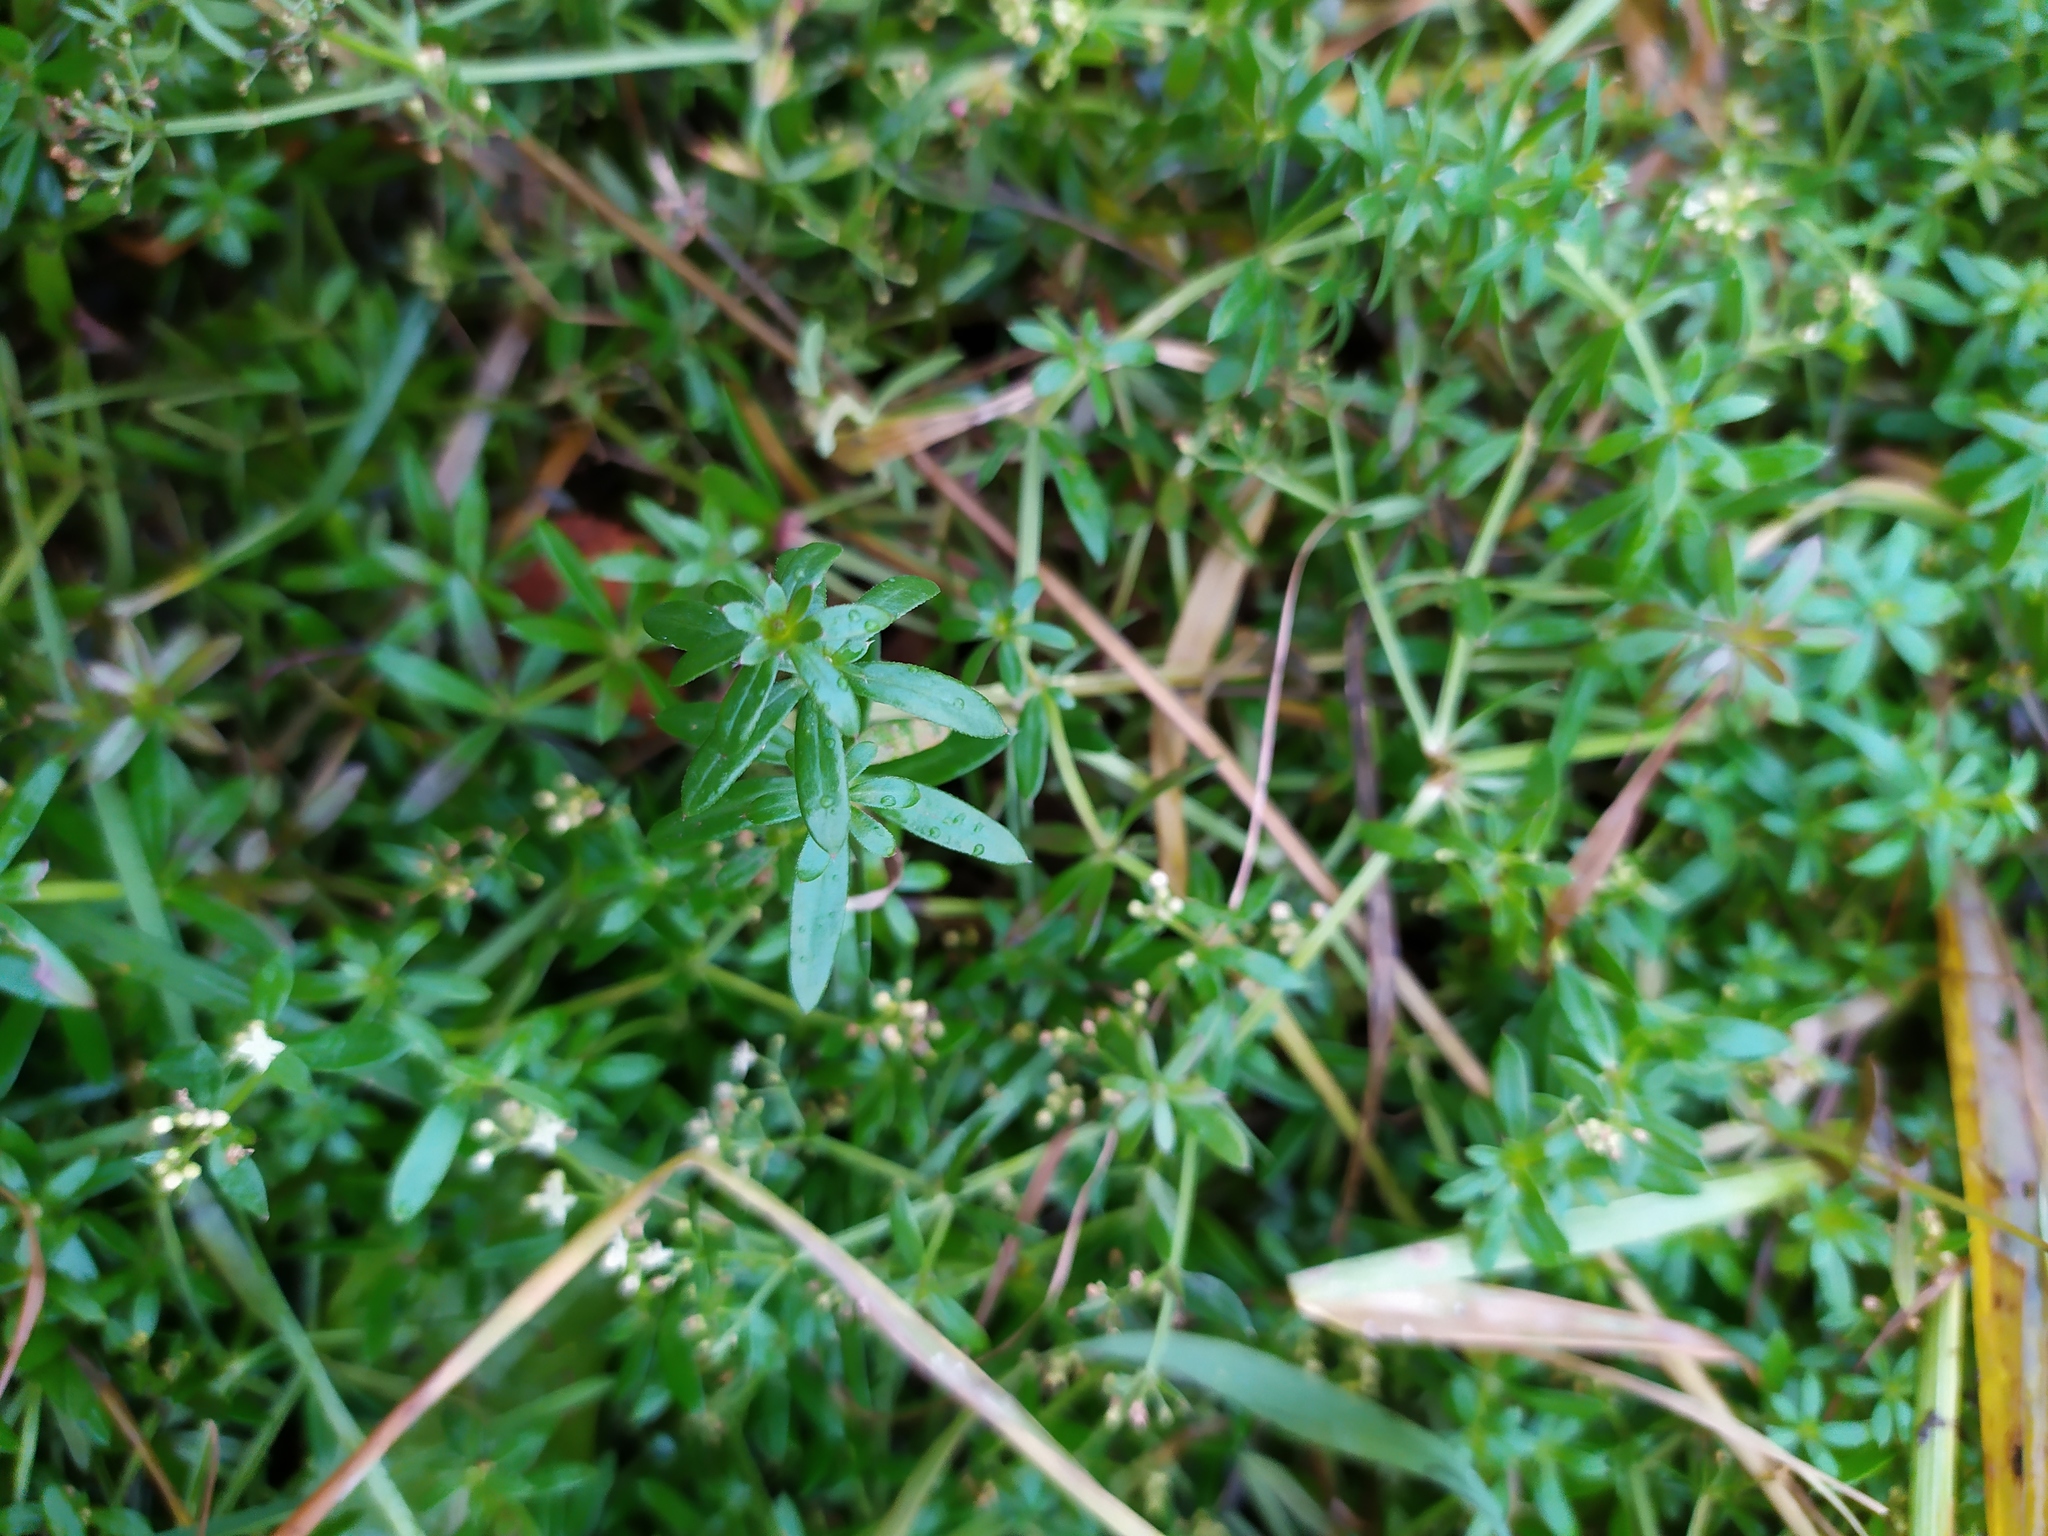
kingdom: Plantae
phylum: Tracheophyta
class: Magnoliopsida
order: Gentianales
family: Rubiaceae
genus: Galium
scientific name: Galium mollugo
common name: Hedge bedstraw
